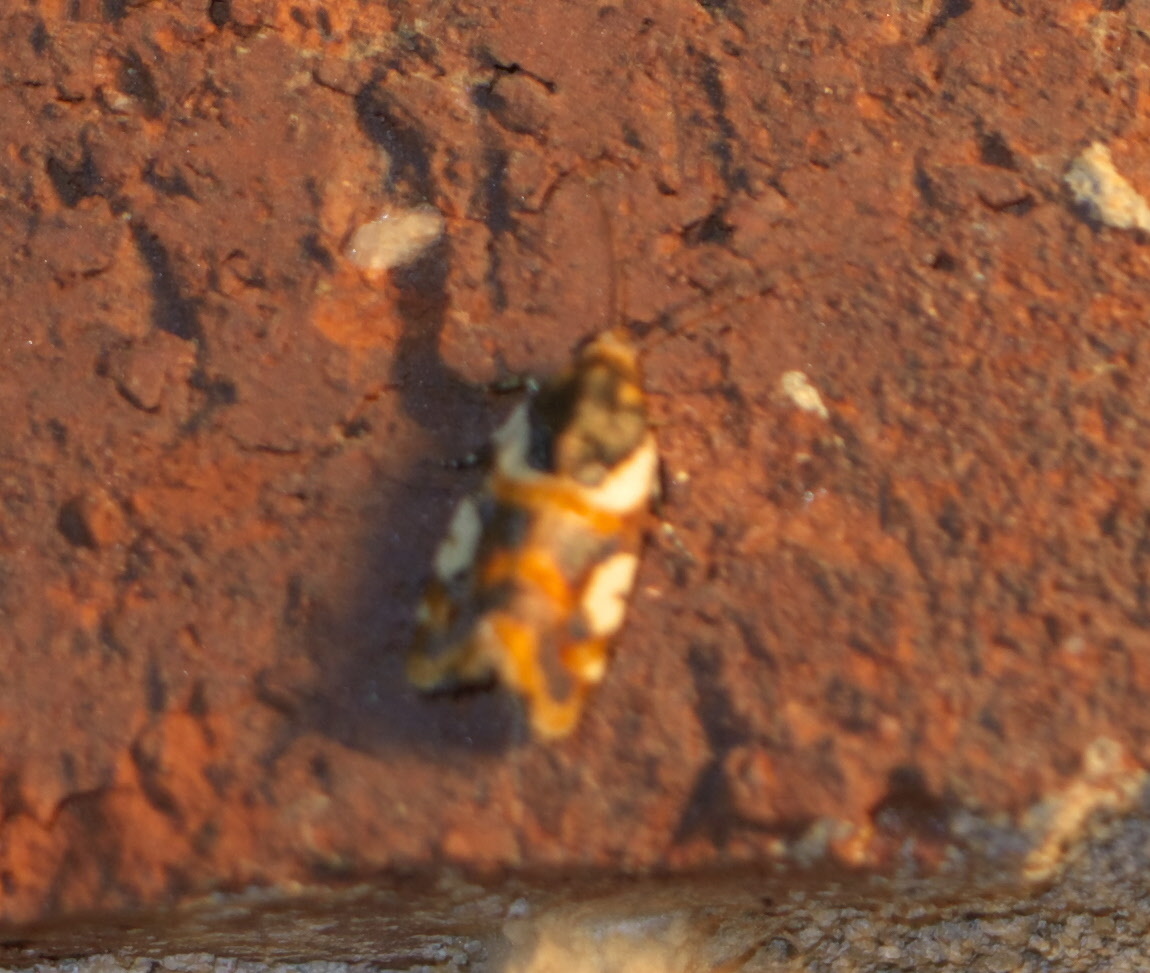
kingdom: Animalia
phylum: Arthropoda
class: Insecta
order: Lepidoptera
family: Noctuidae
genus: Acontia
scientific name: Acontia dama
